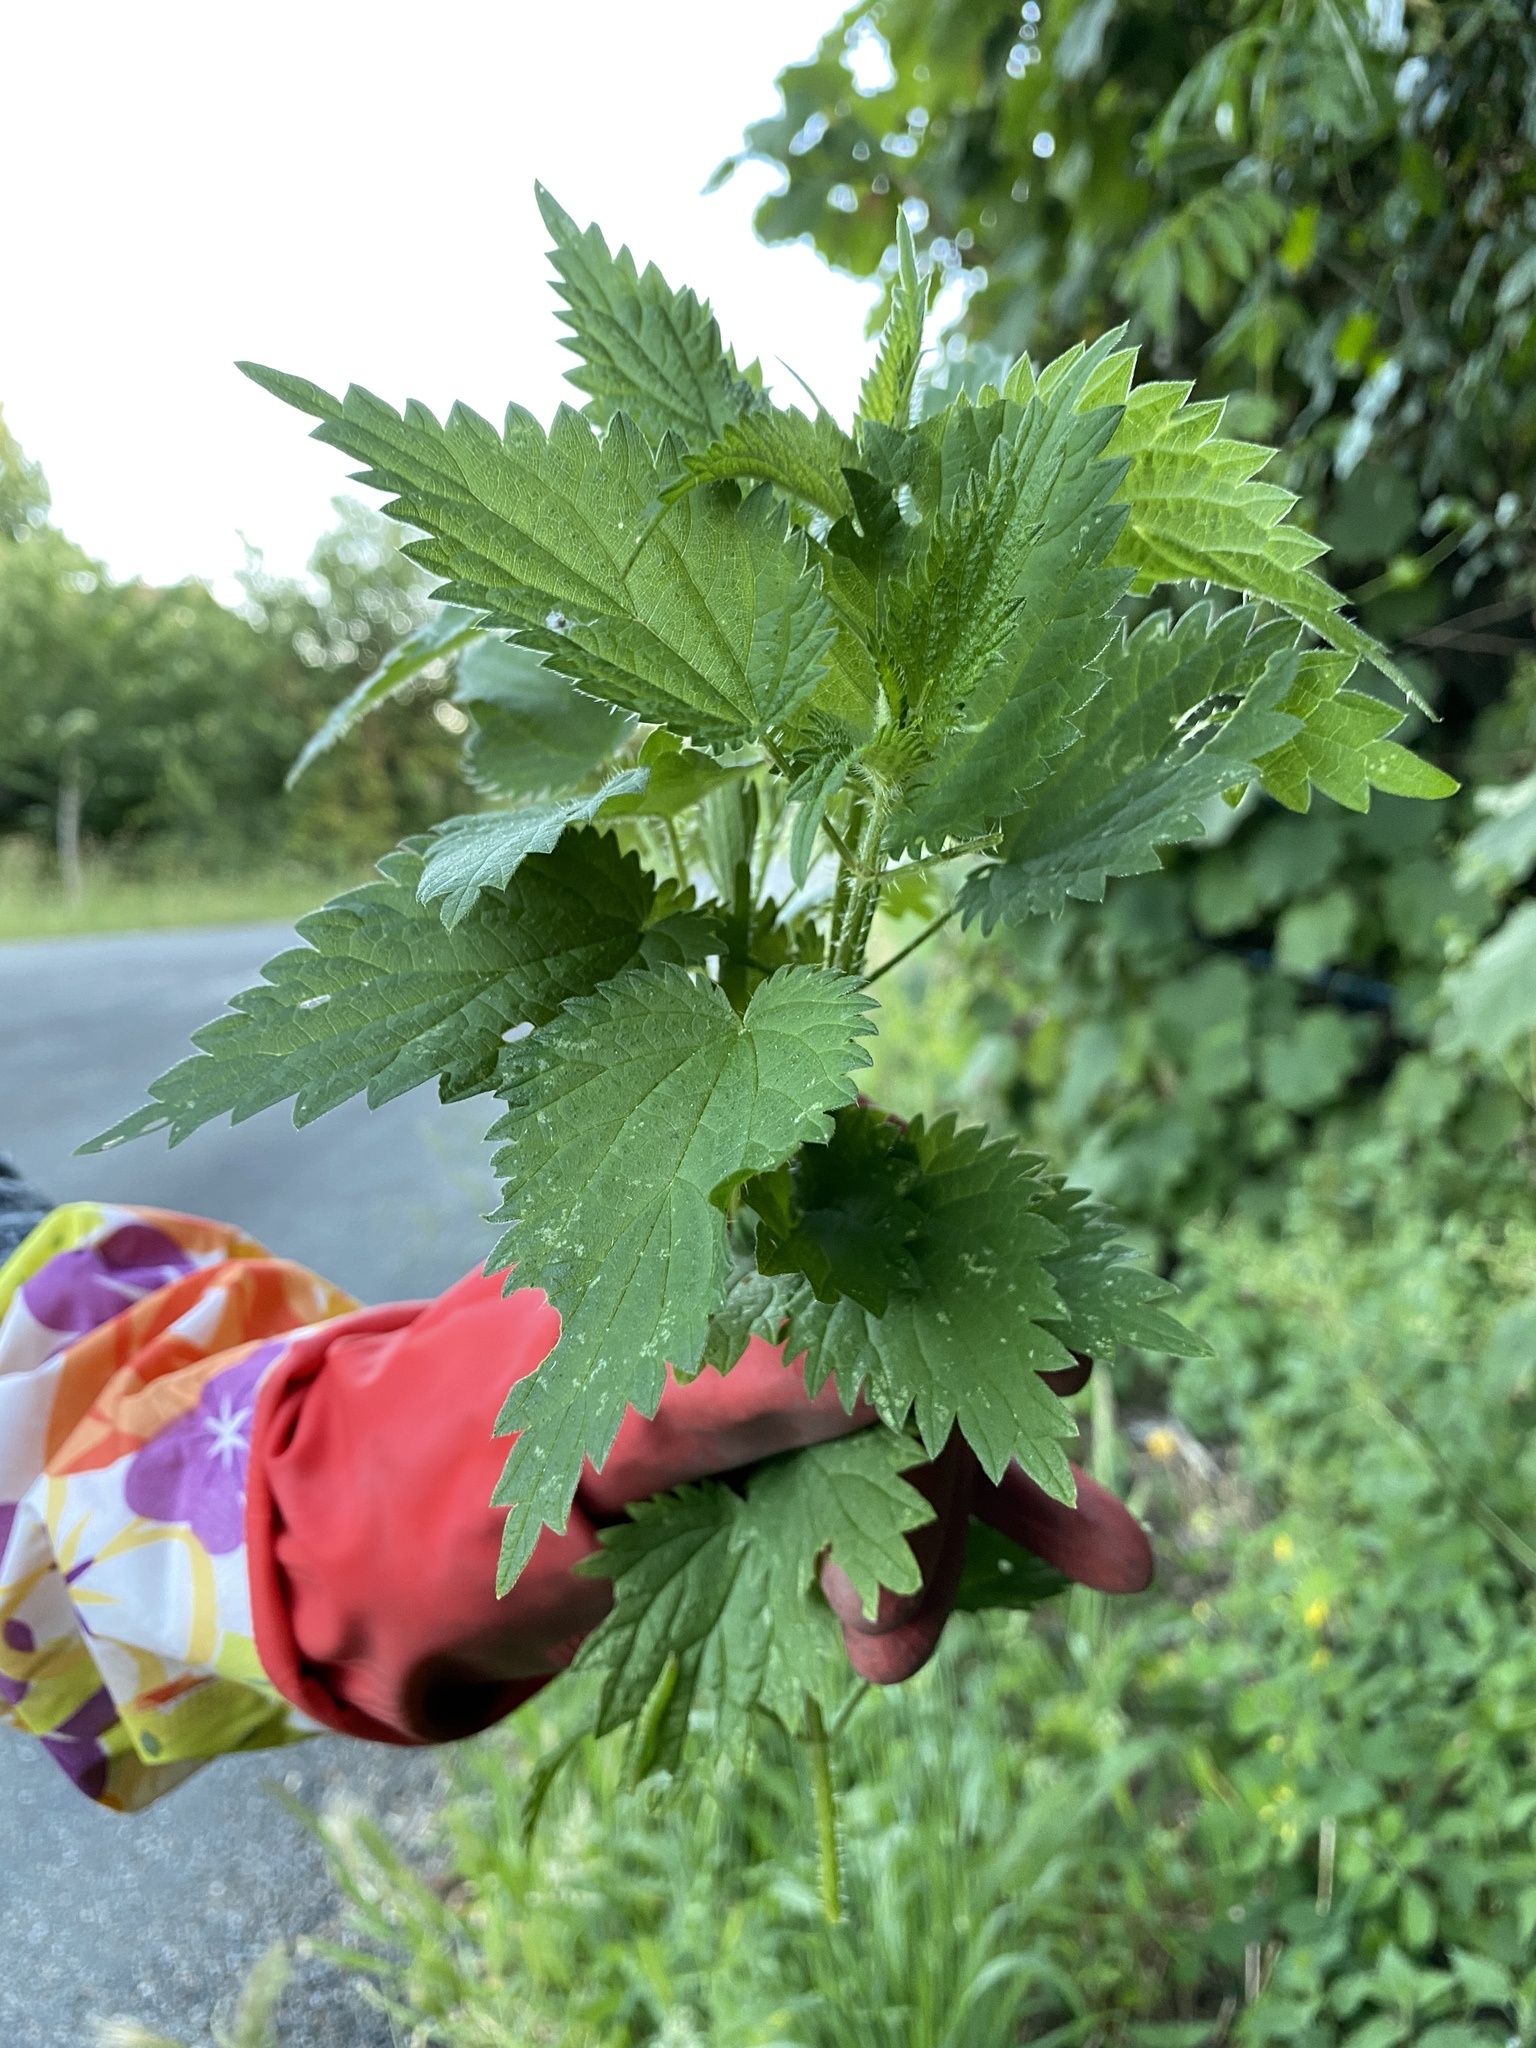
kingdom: Plantae
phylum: Tracheophyta
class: Magnoliopsida
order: Rosales
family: Urticaceae
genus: Urtica
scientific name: Urtica dioica
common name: Common nettle
